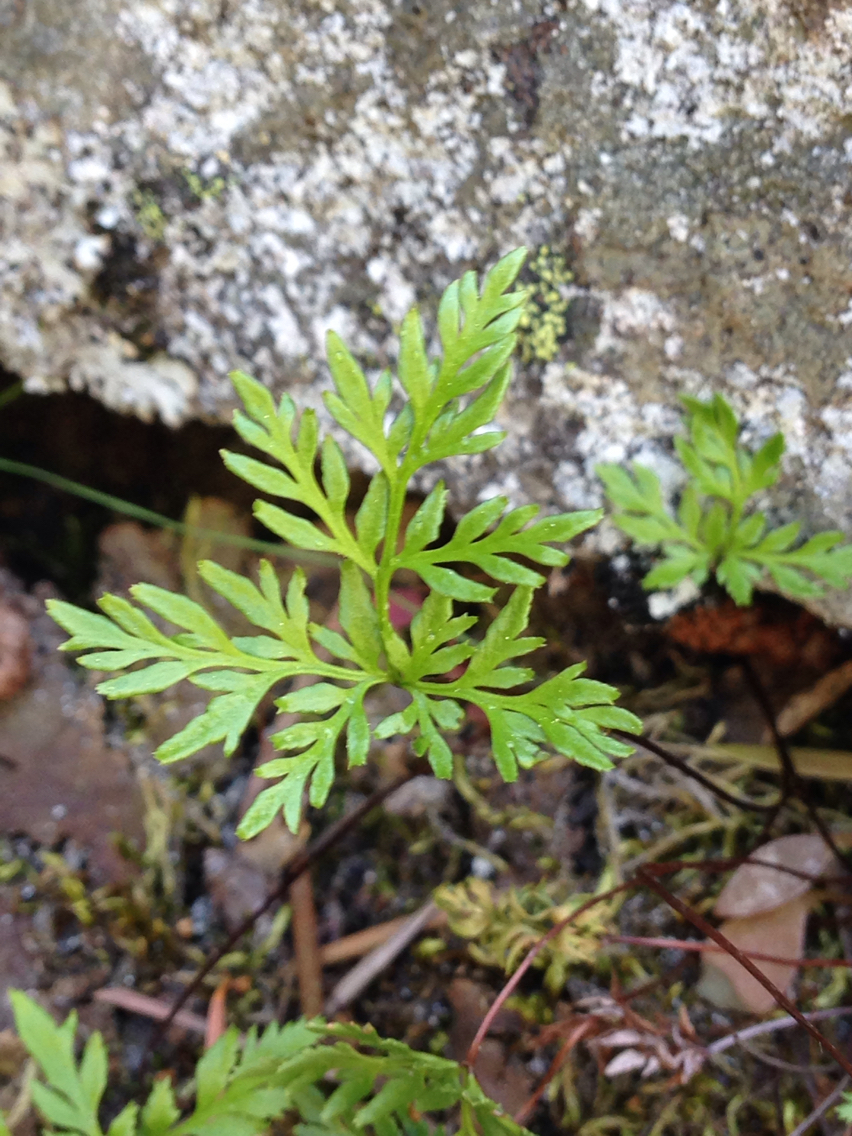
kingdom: Plantae
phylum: Tracheophyta
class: Polypodiopsida
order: Polypodiales
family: Pteridaceae
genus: Aspidotis
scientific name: Aspidotis densa
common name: Indian's dream
